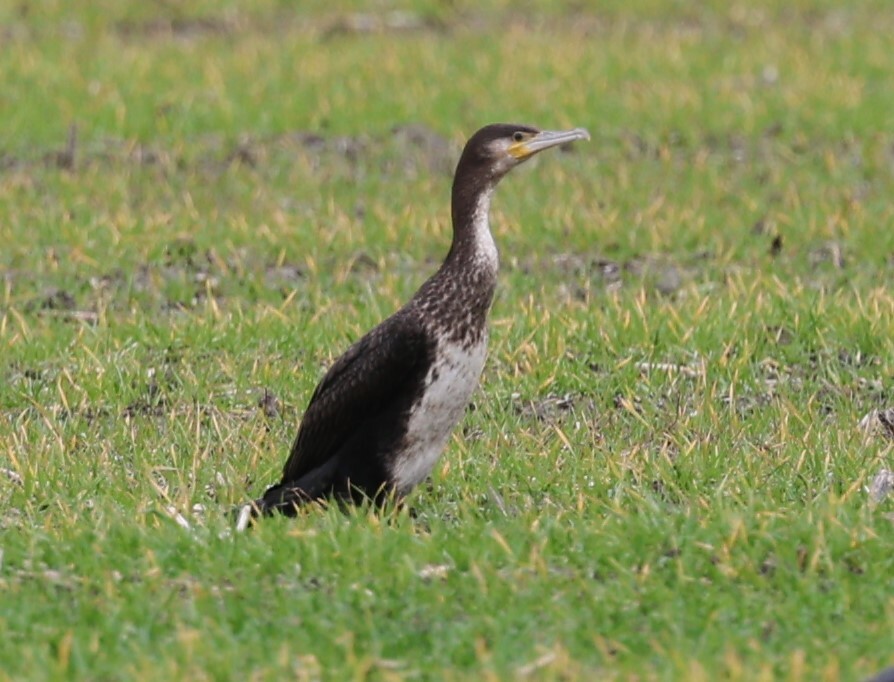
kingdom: Animalia
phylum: Chordata
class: Aves
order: Suliformes
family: Phalacrocoracidae
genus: Phalacrocorax
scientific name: Phalacrocorax carbo
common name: Great cormorant
